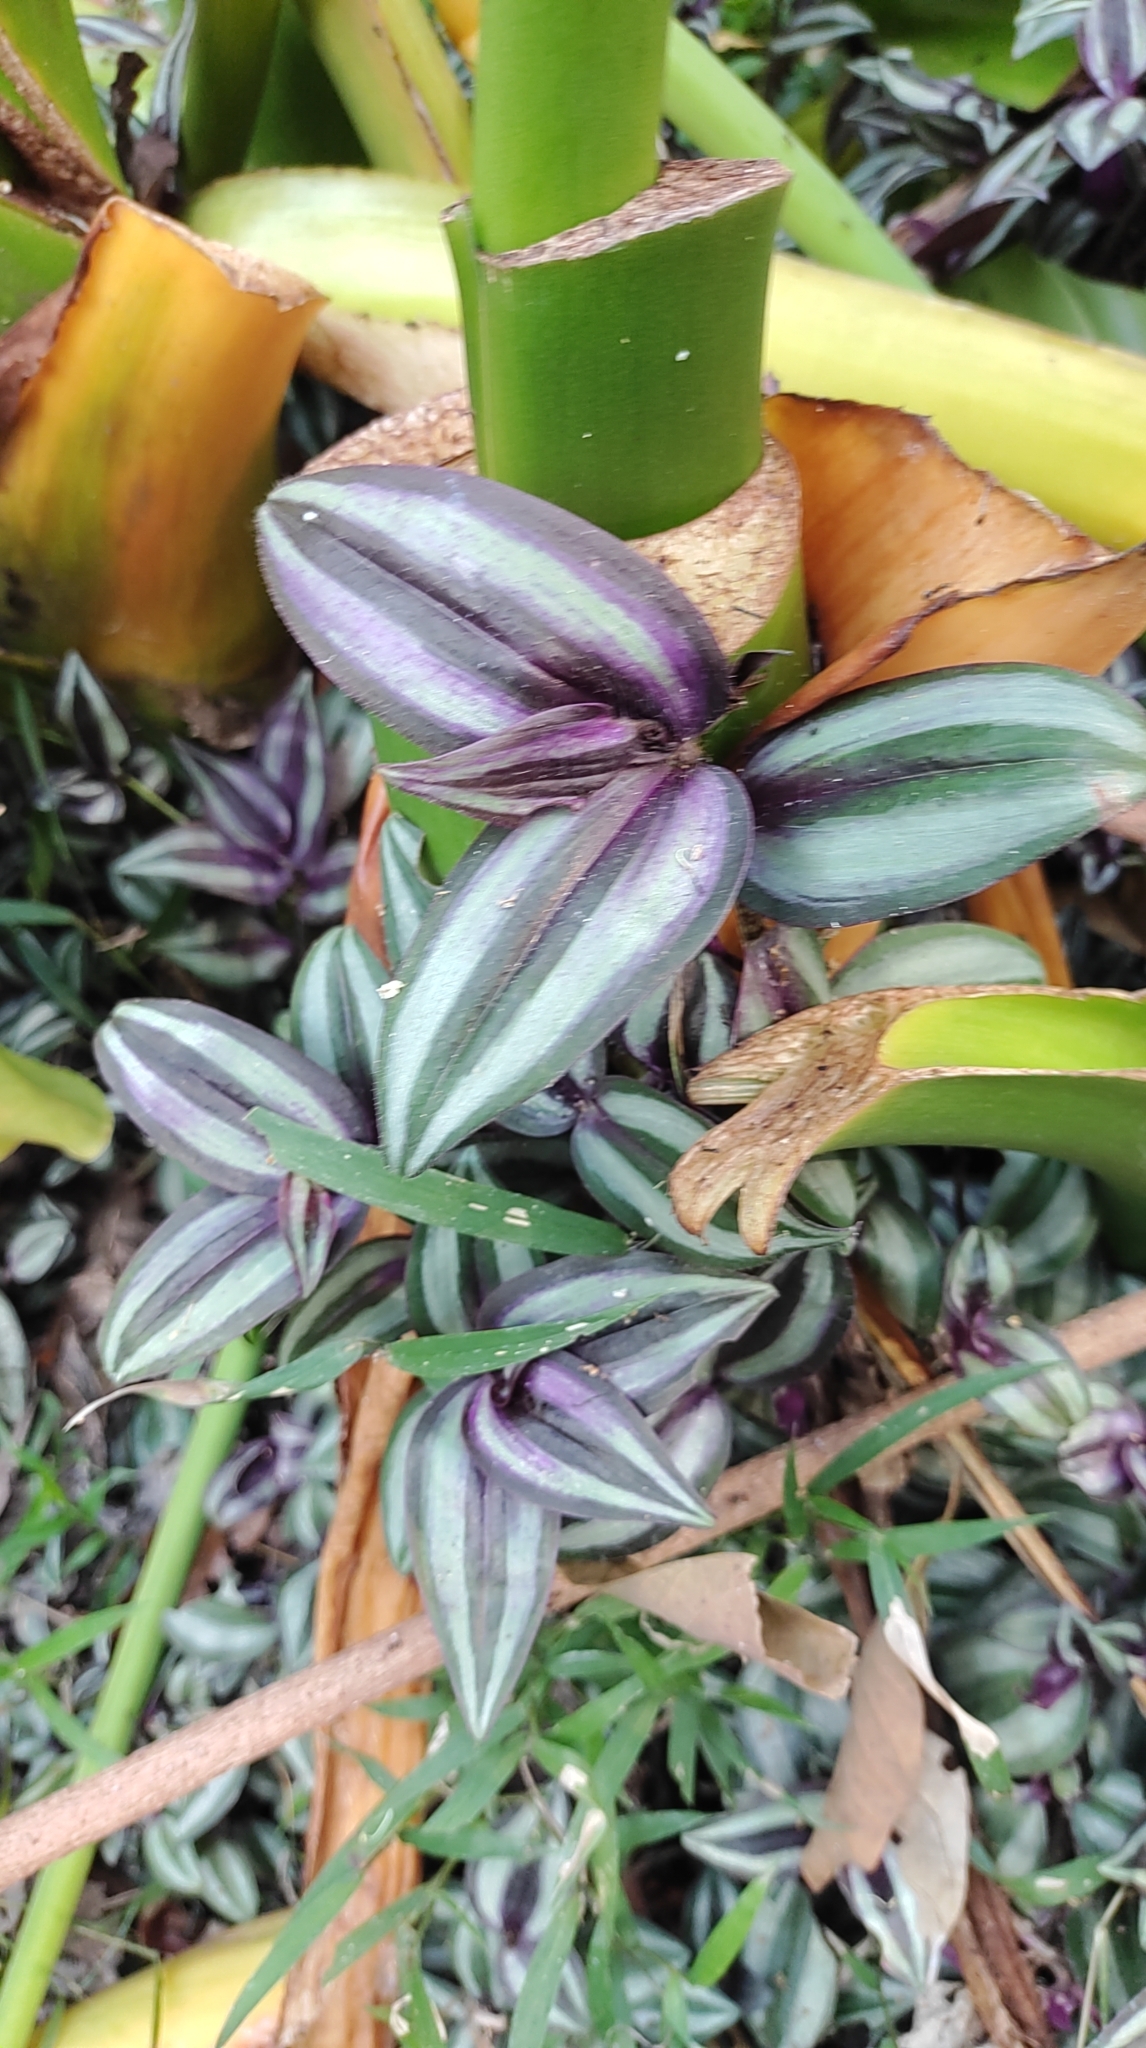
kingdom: Plantae
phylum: Tracheophyta
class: Liliopsida
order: Commelinales
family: Commelinaceae
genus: Tradescantia
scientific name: Tradescantia zebrina
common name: Inchplant
